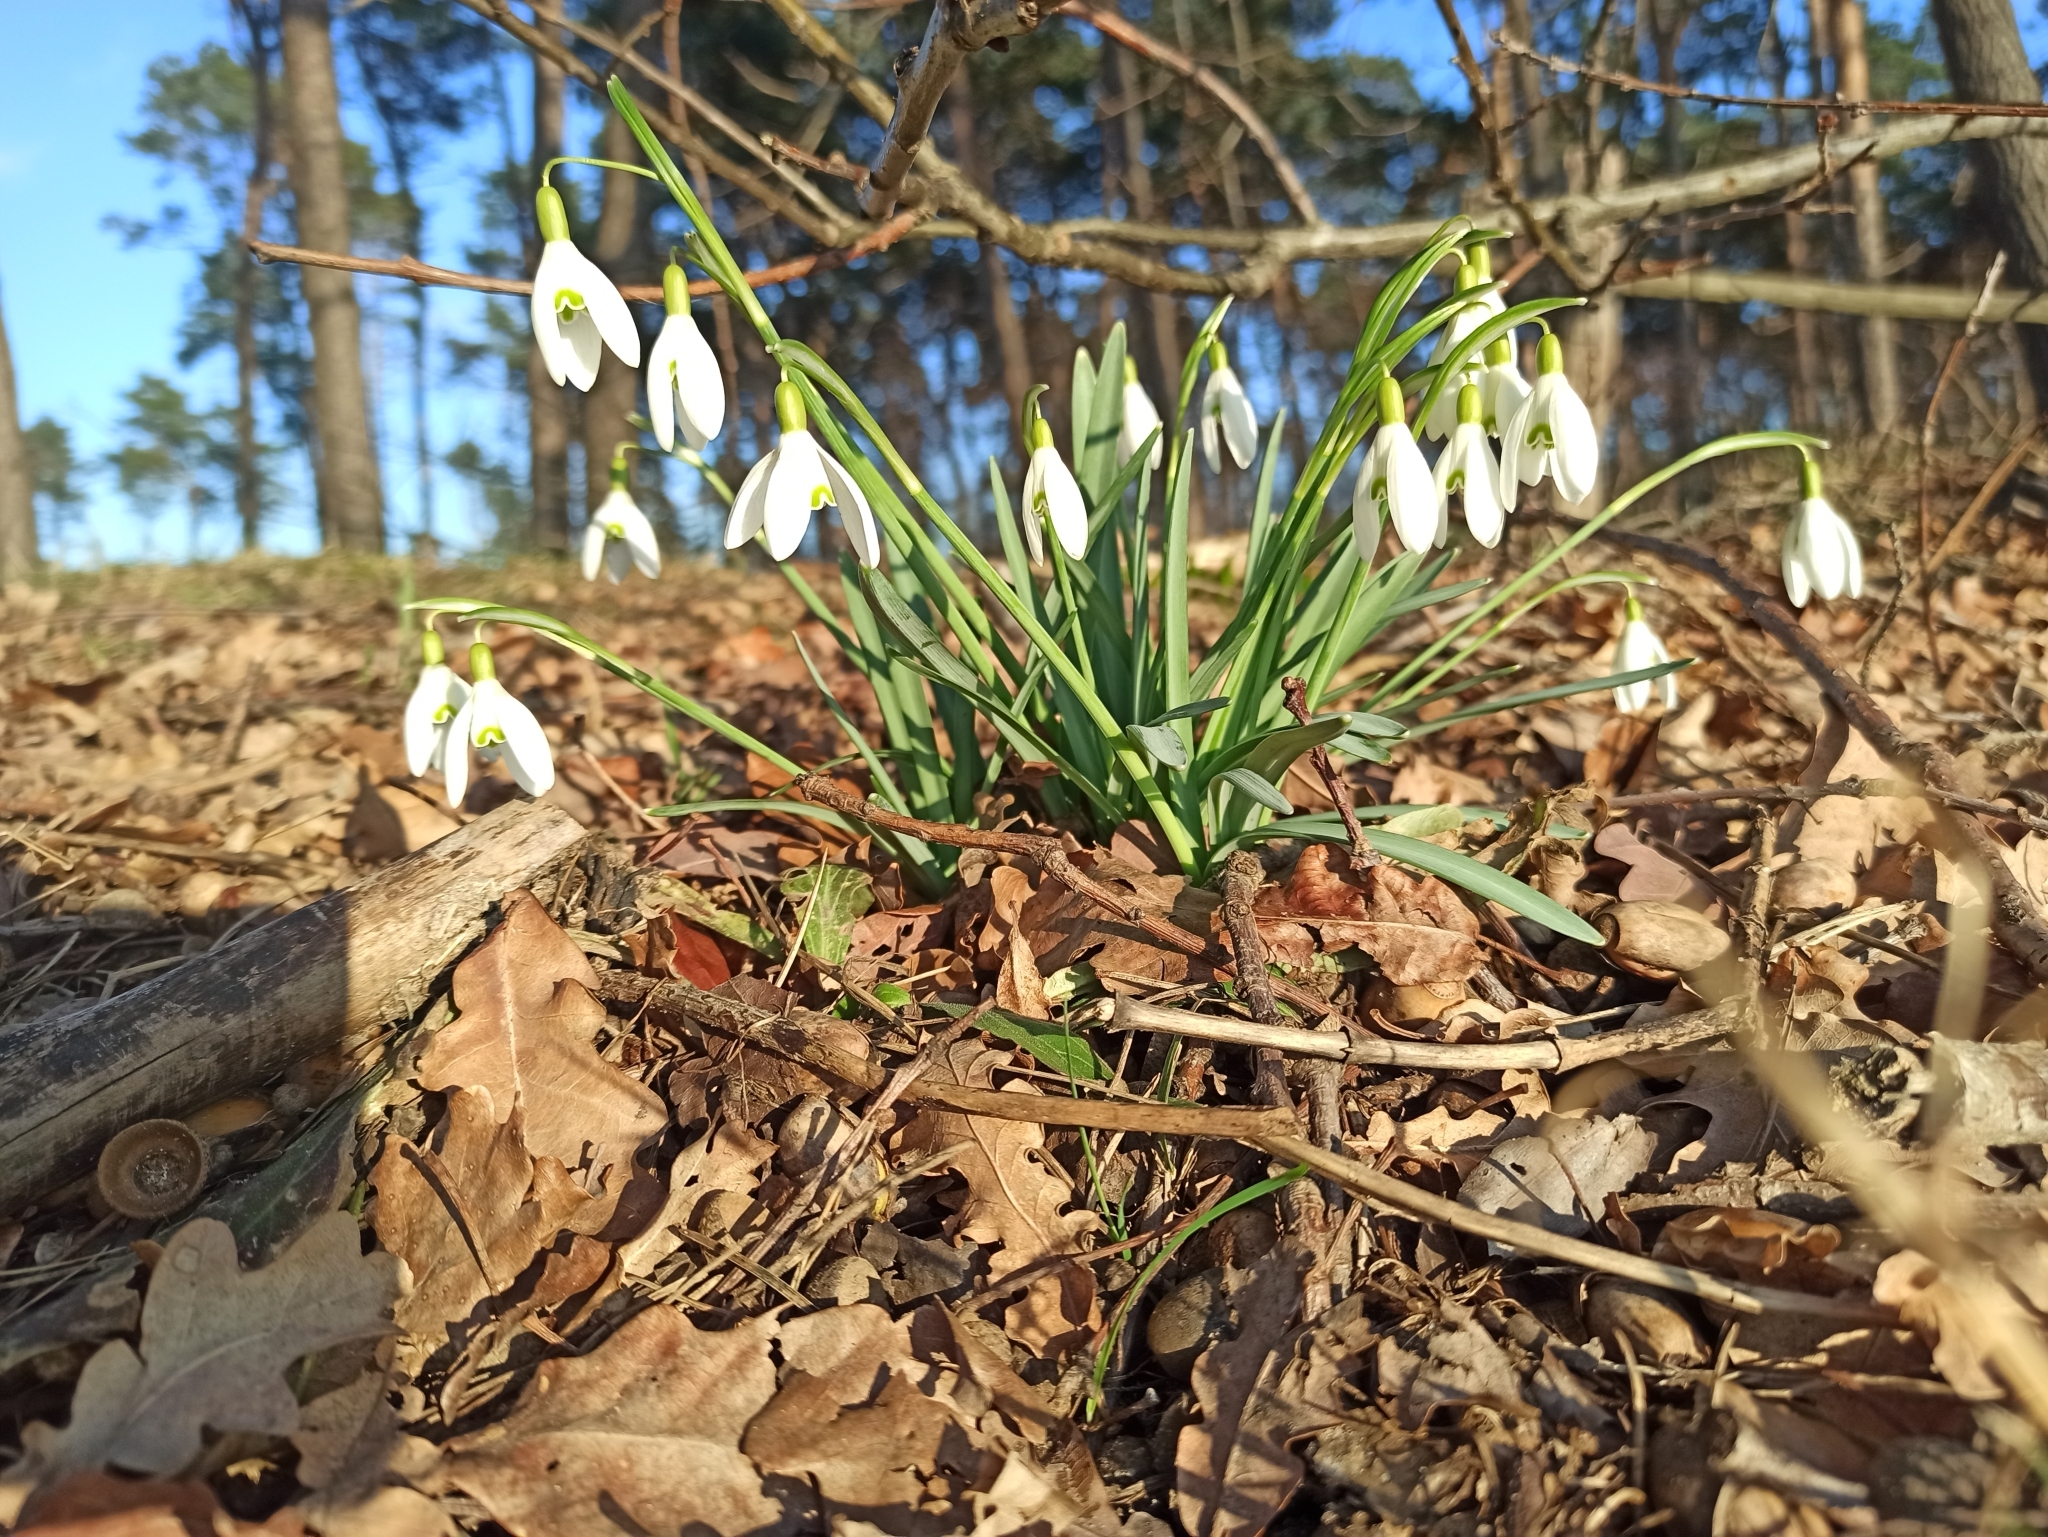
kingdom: Plantae
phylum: Tracheophyta
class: Liliopsida
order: Asparagales
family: Amaryllidaceae
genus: Galanthus
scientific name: Galanthus nivalis
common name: Snowdrop
